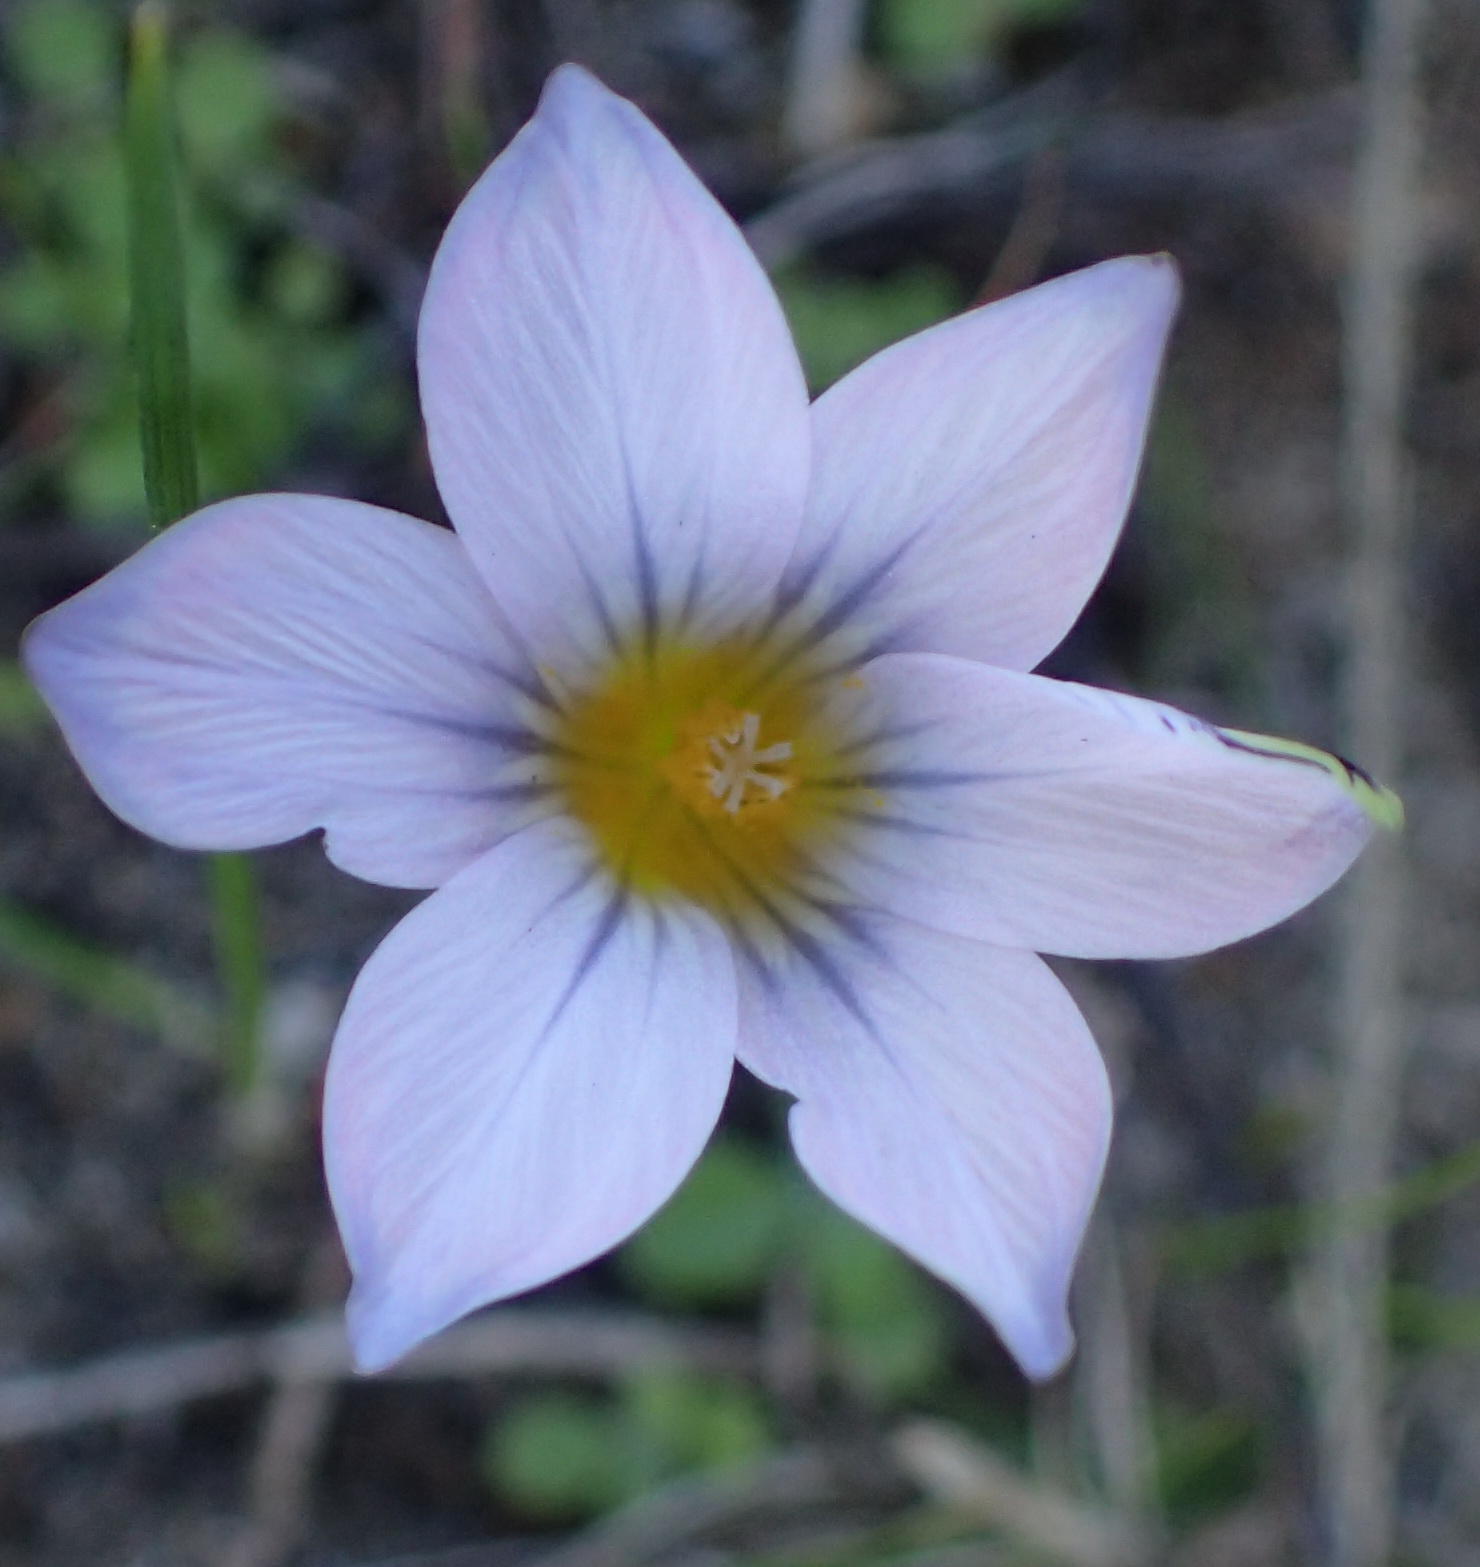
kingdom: Plantae
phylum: Tracheophyta
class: Liliopsida
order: Asparagales
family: Iridaceae
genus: Romulea
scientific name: Romulea rosea
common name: Oniongrass
